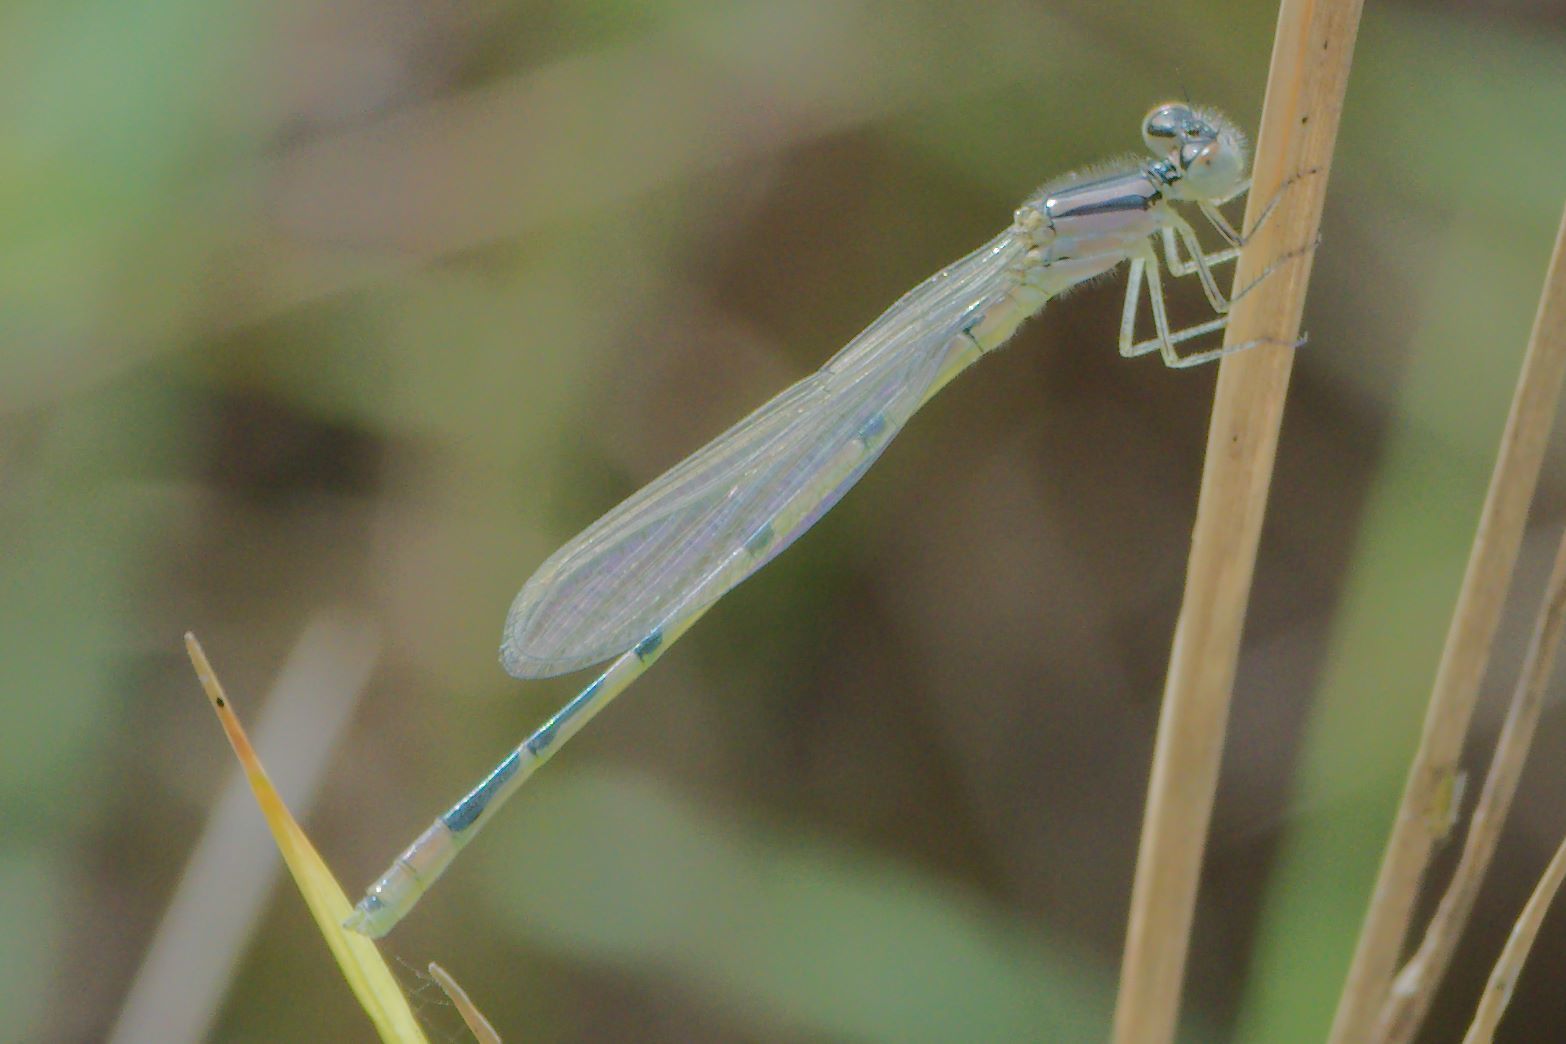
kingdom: Animalia
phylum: Arthropoda
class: Insecta
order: Odonata
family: Coenagrionidae
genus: Enallagma
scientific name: Enallagma civile
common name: Damselfly
